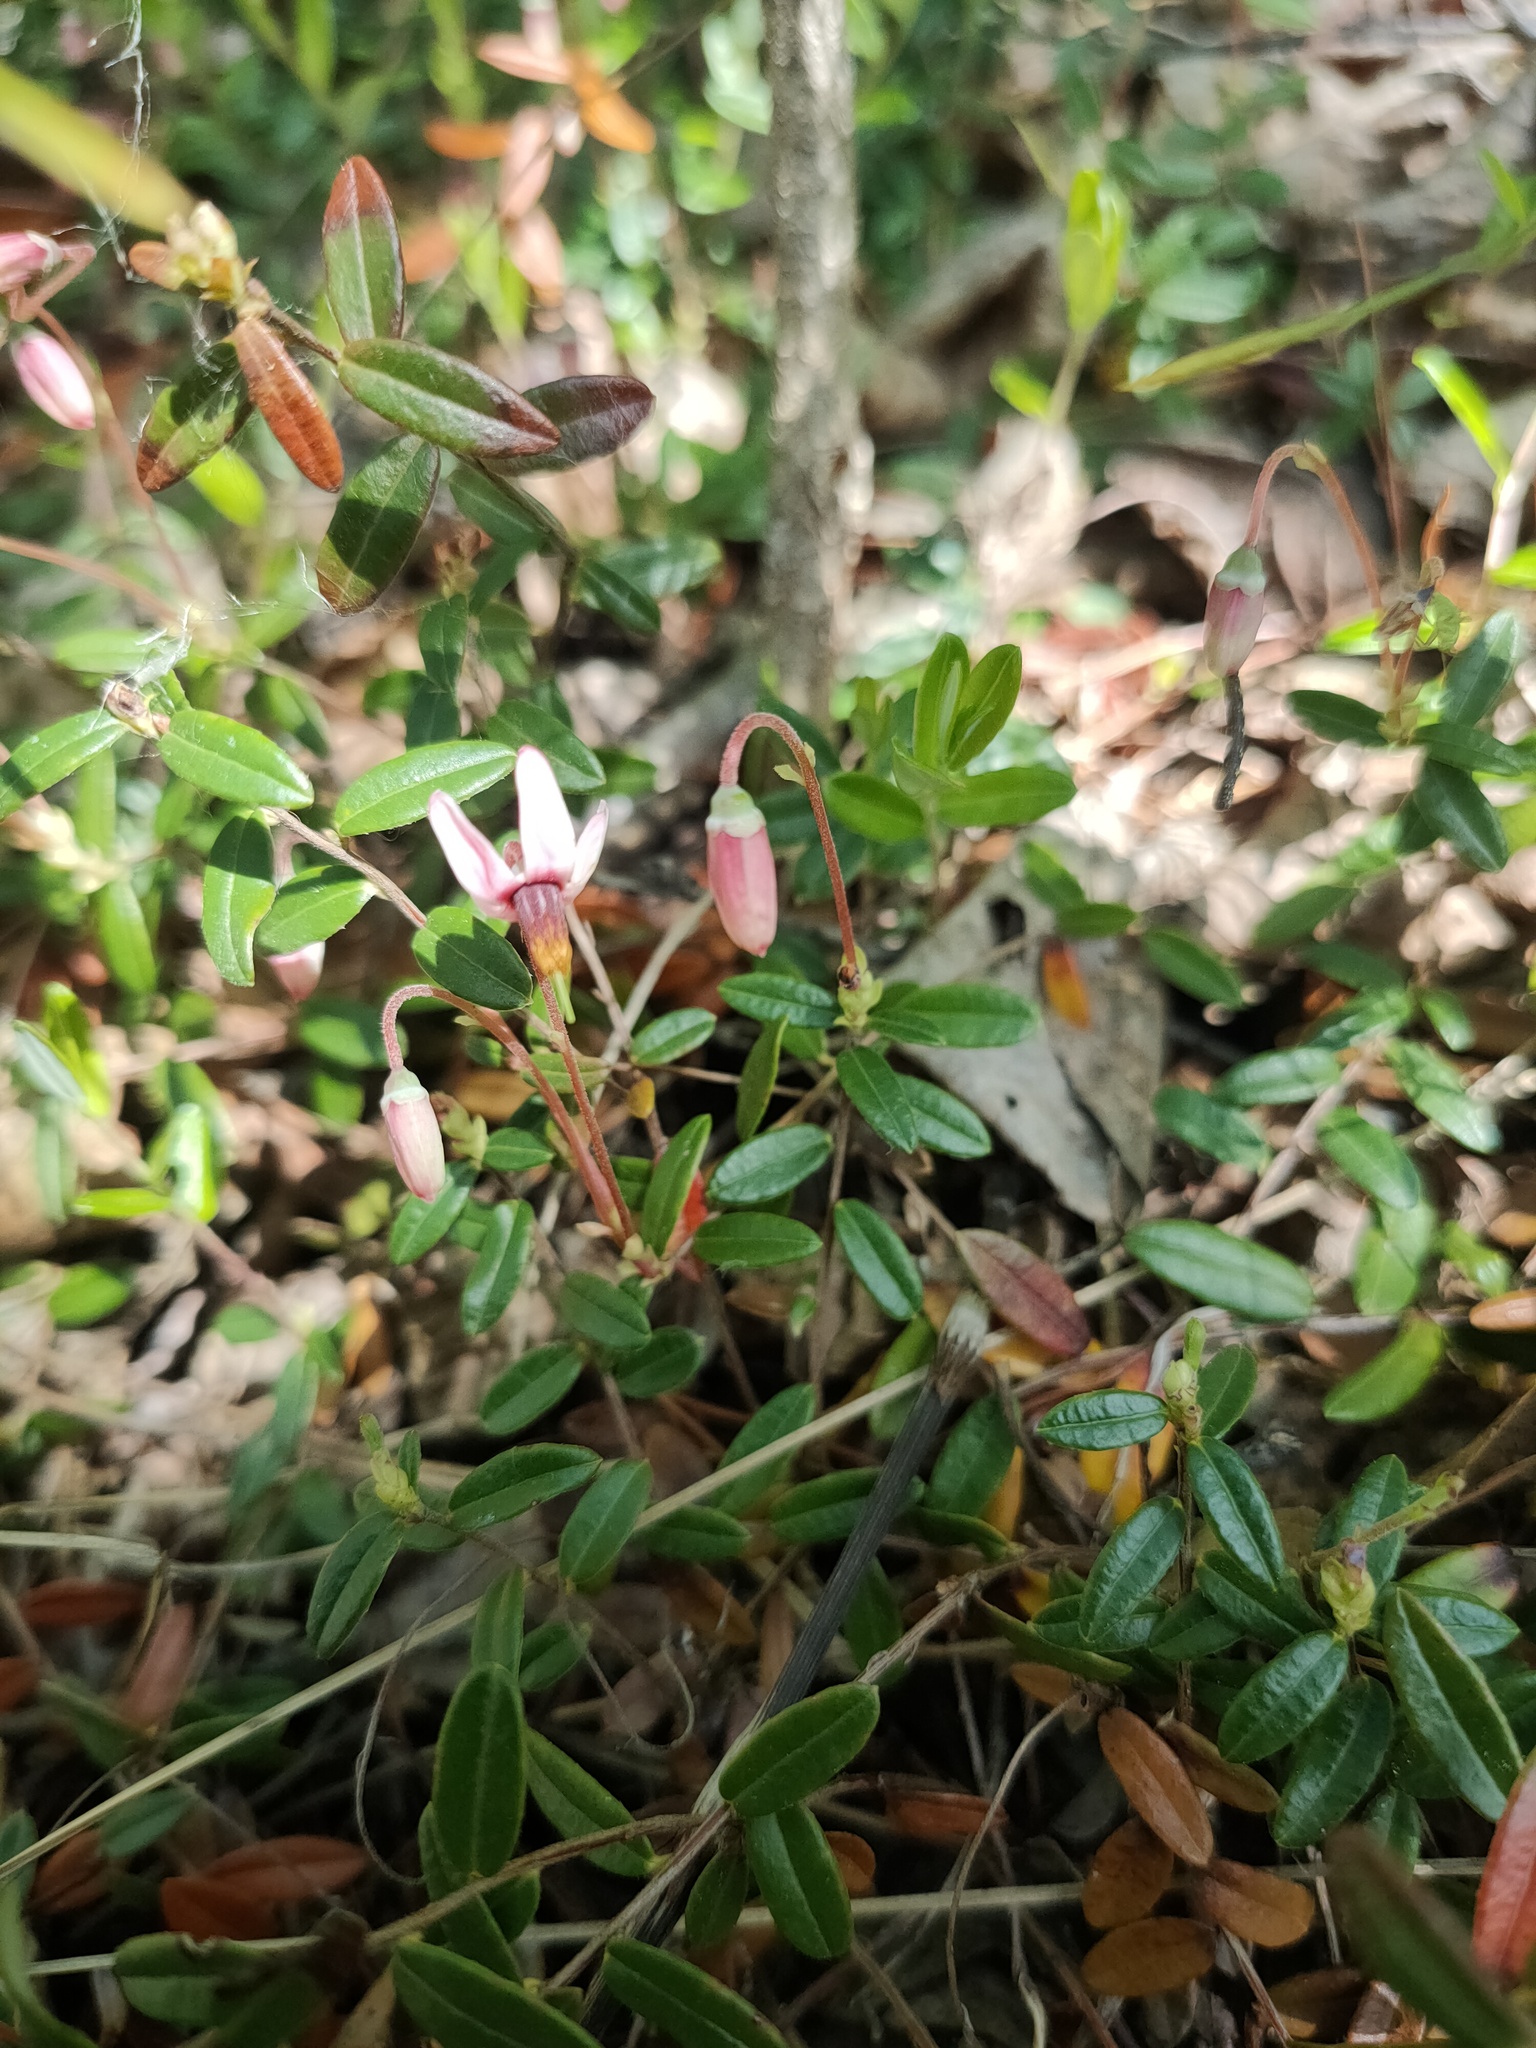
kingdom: Plantae
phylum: Tracheophyta
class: Magnoliopsida
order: Ericales
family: Ericaceae
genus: Vaccinium
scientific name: Vaccinium oxycoccos
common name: Cranberry
